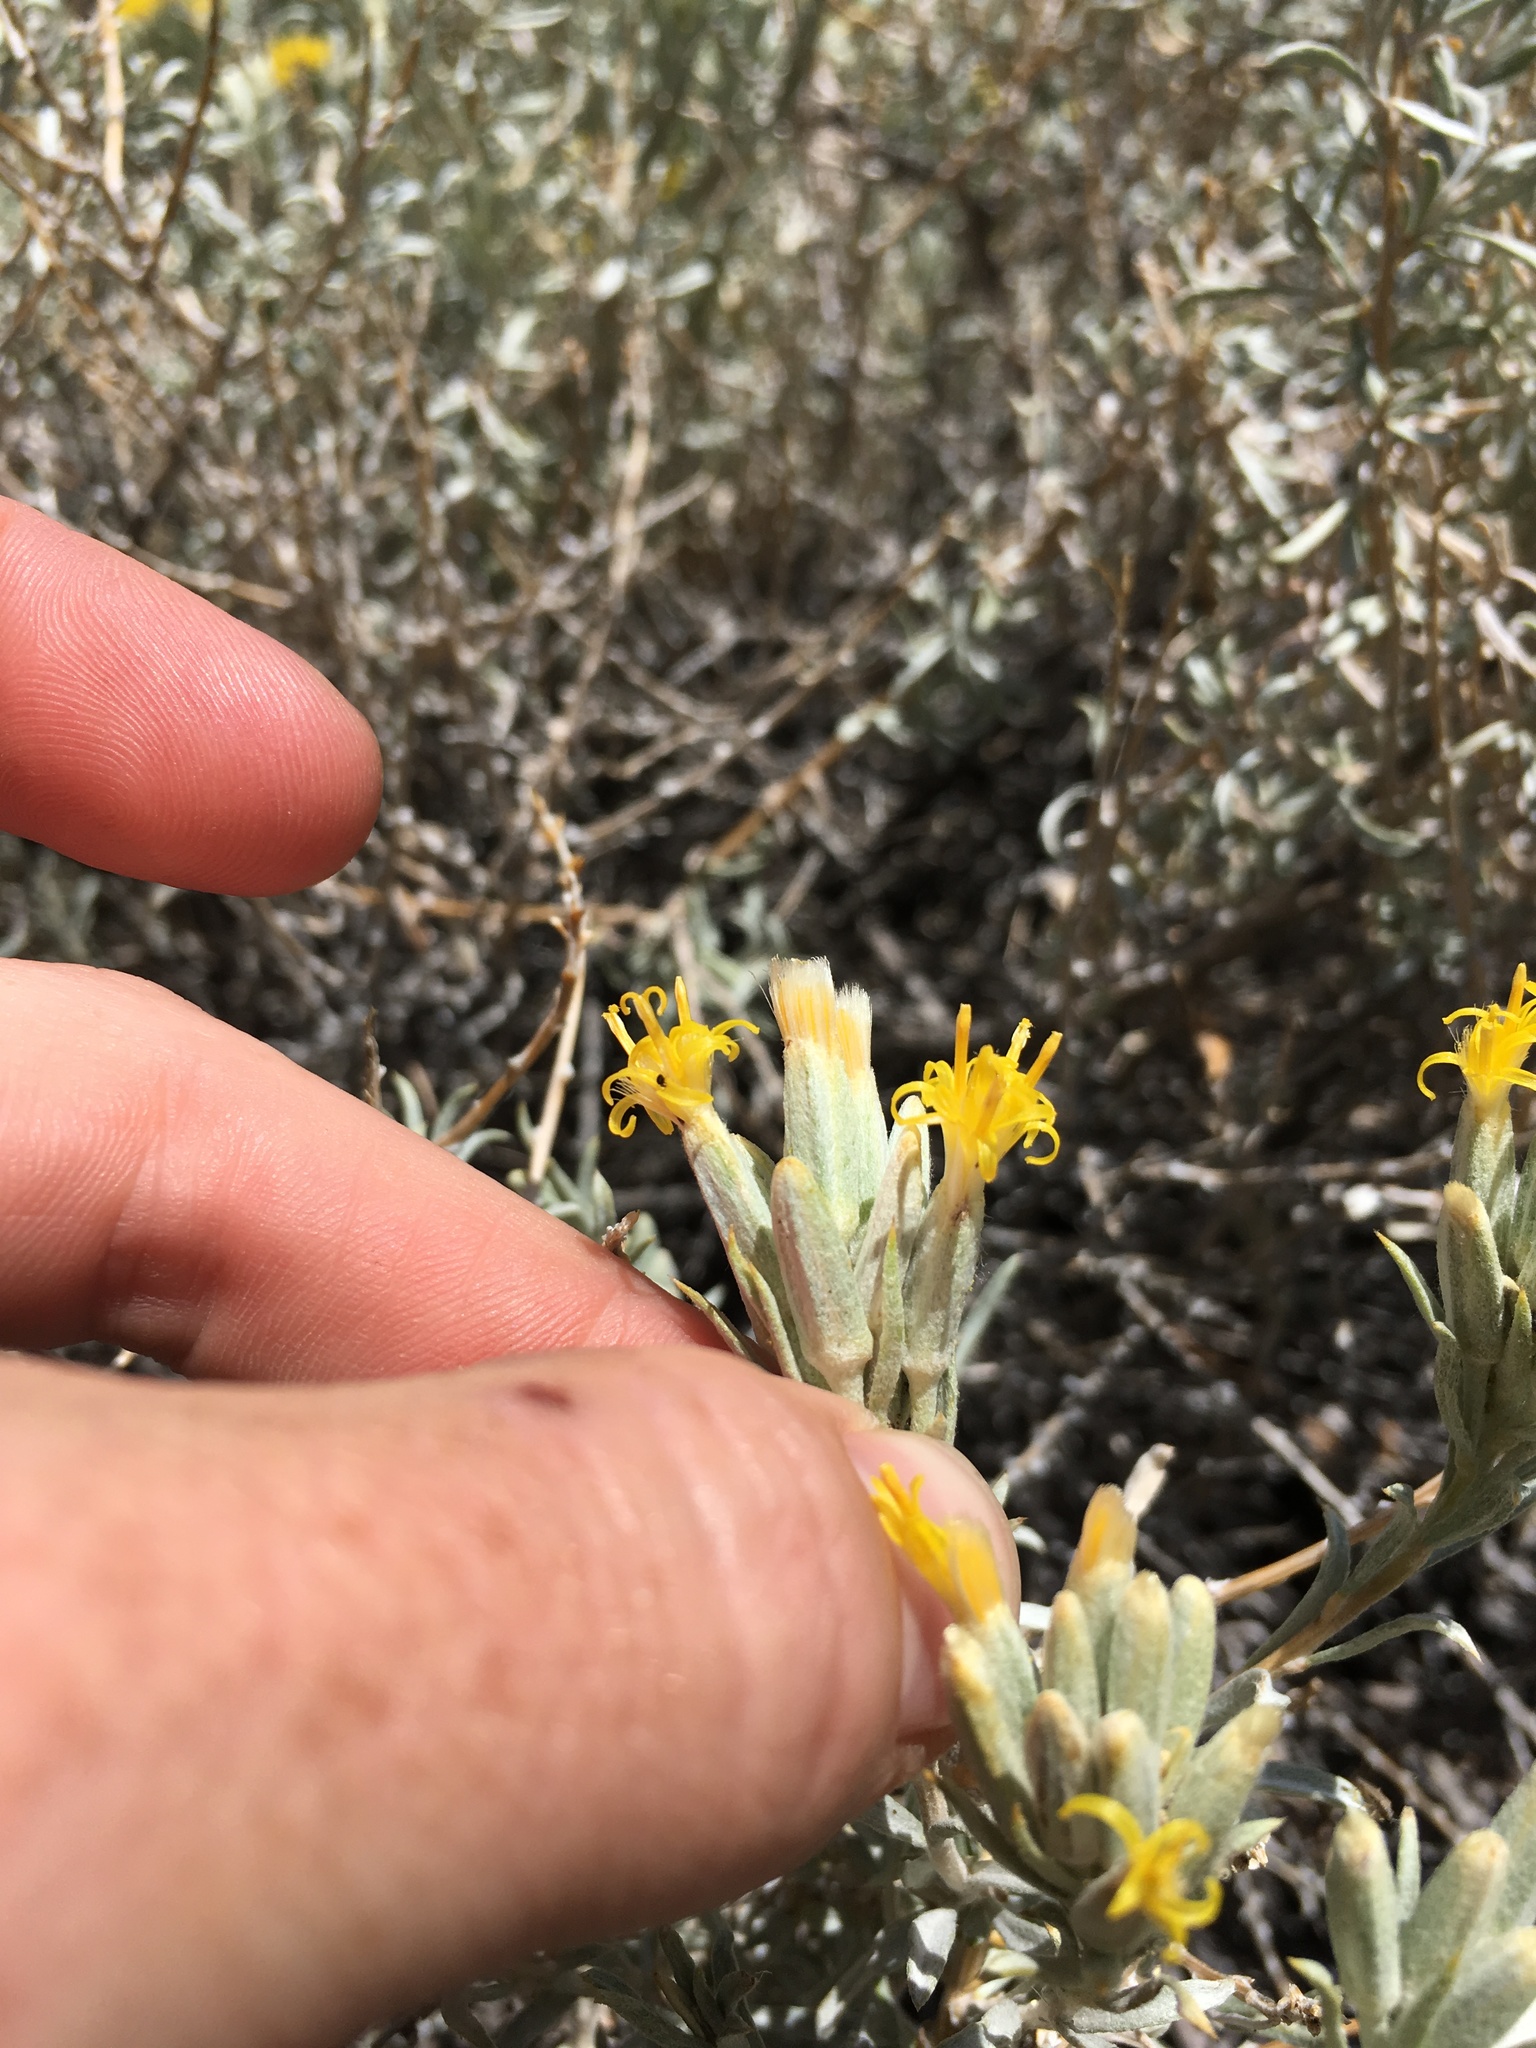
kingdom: Plantae
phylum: Tracheophyta
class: Magnoliopsida
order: Asterales
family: Asteraceae
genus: Tetradymia
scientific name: Tetradymia canescens
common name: Spineless horsebrush
